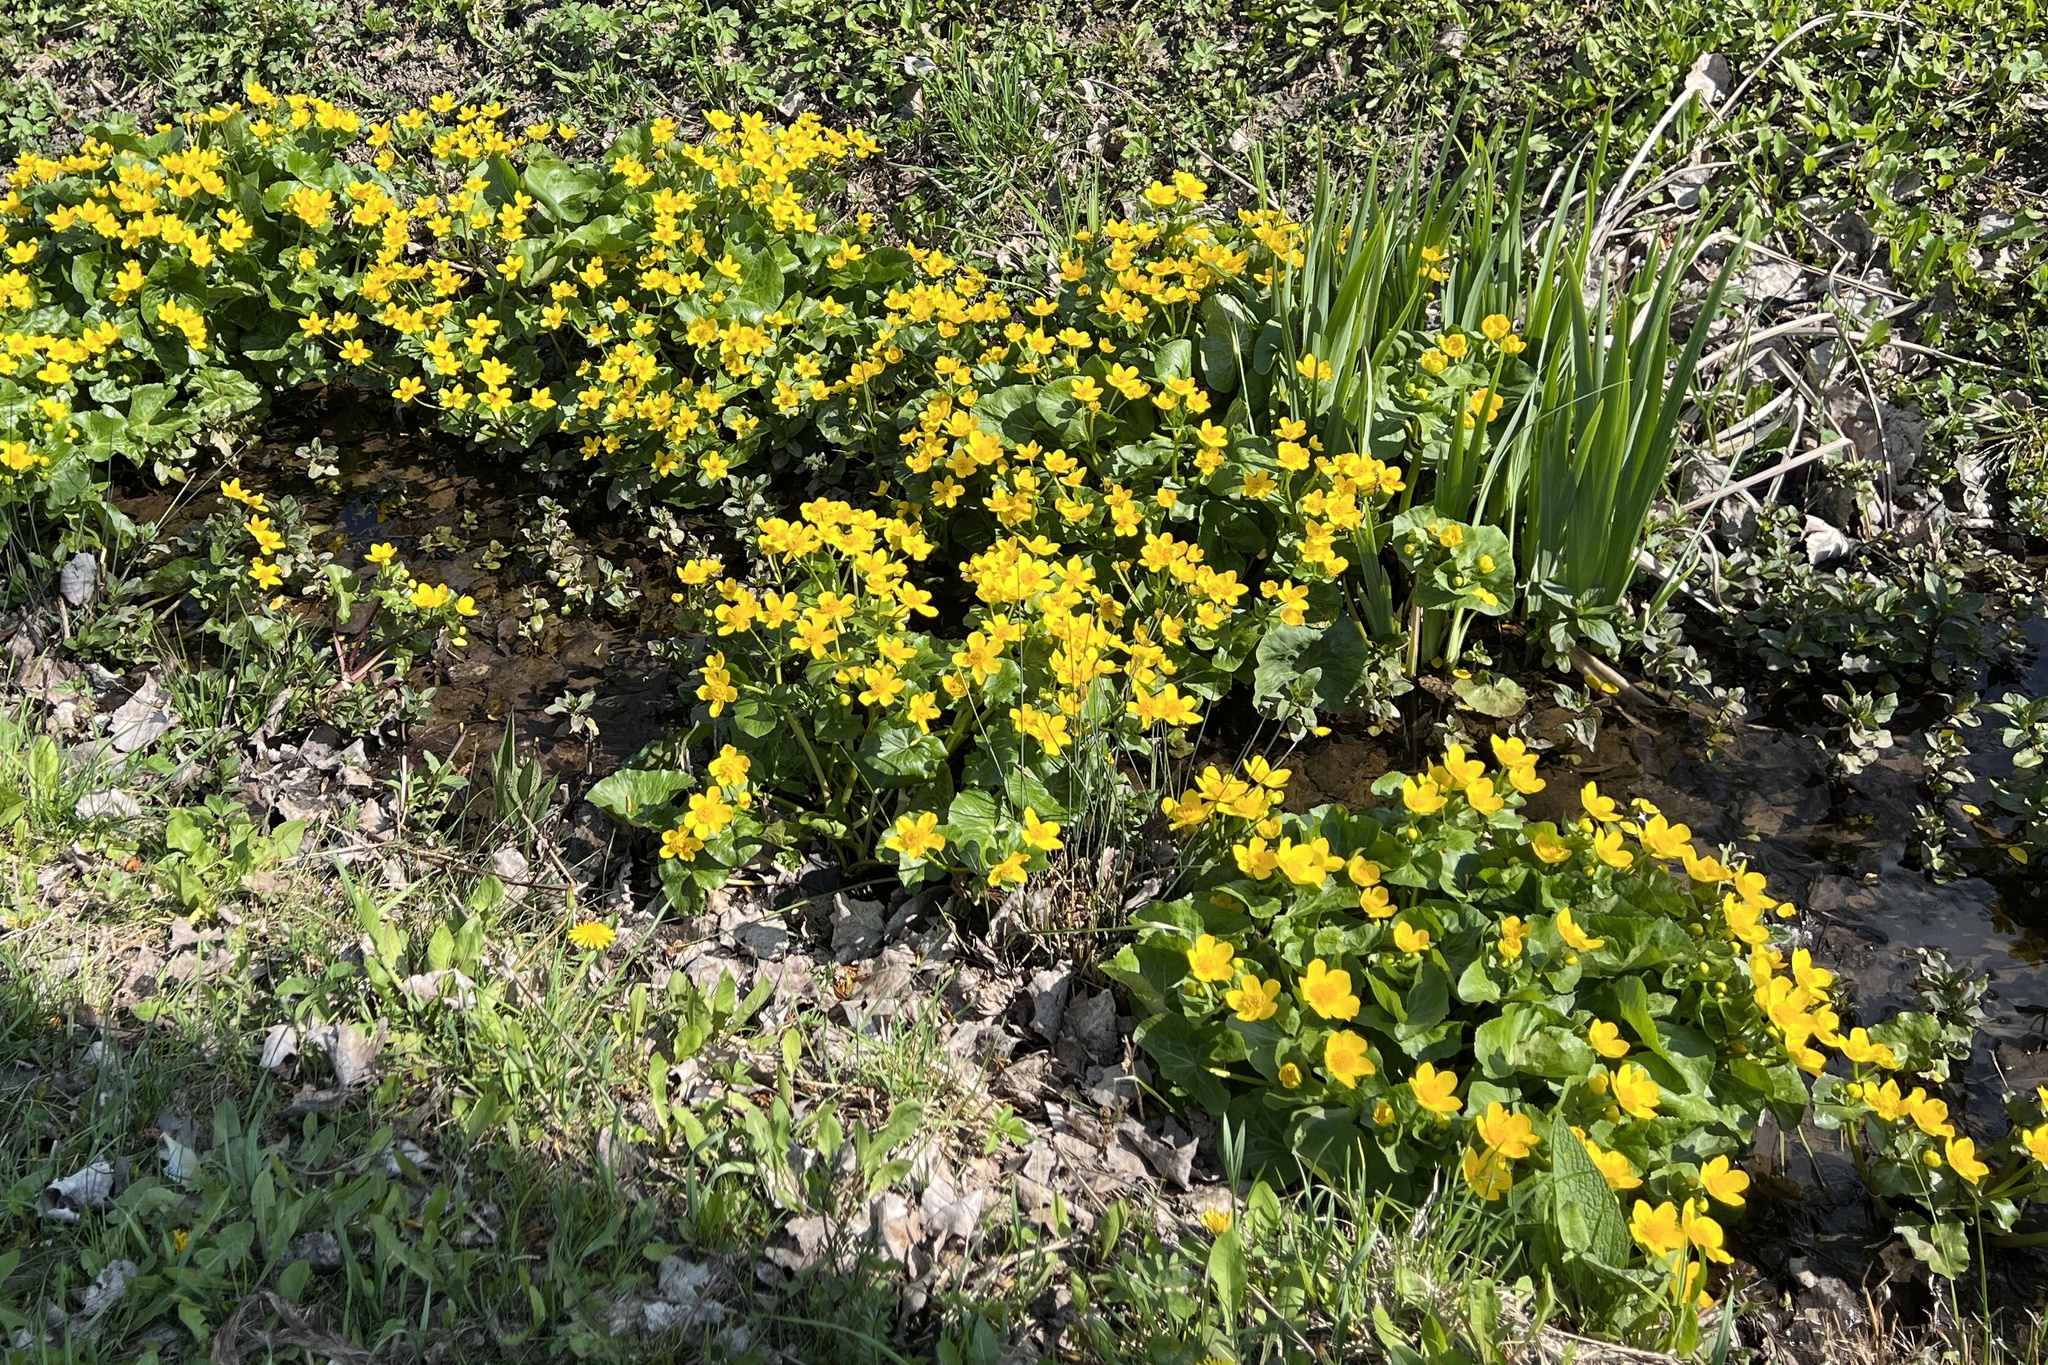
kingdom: Plantae
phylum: Tracheophyta
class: Magnoliopsida
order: Ranunculales
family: Ranunculaceae
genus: Caltha
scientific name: Caltha palustris
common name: Marsh marigold
